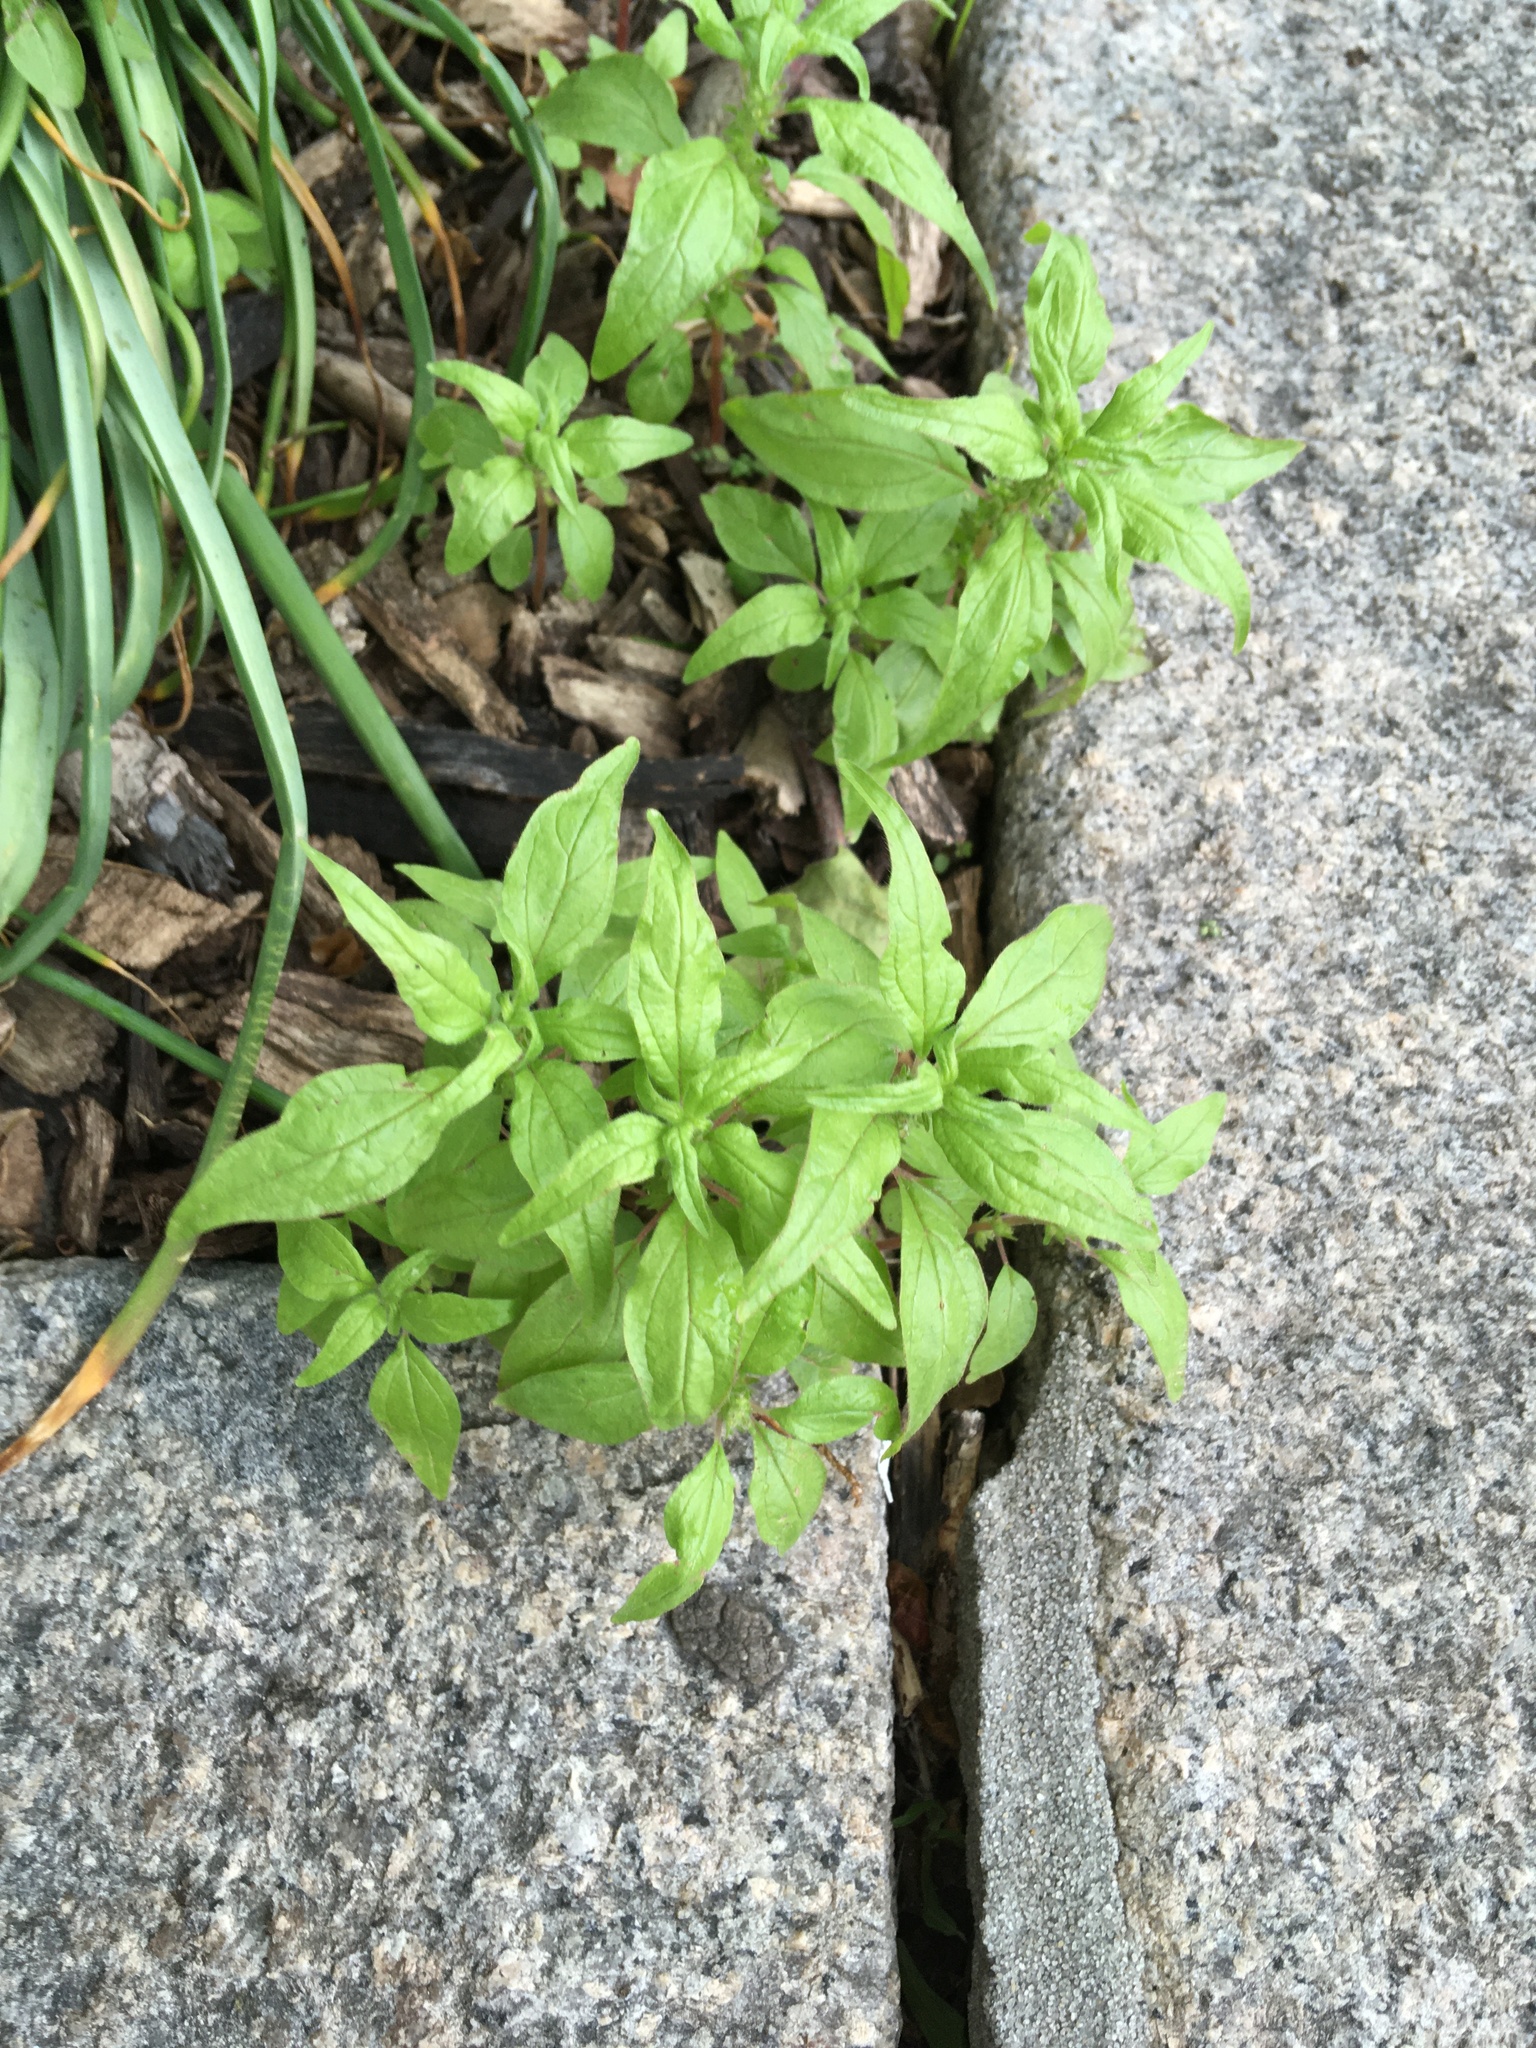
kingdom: Plantae
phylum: Tracheophyta
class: Magnoliopsida
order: Rosales
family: Urticaceae
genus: Parietaria
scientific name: Parietaria pensylvanica
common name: Pennsylvania pellitory
